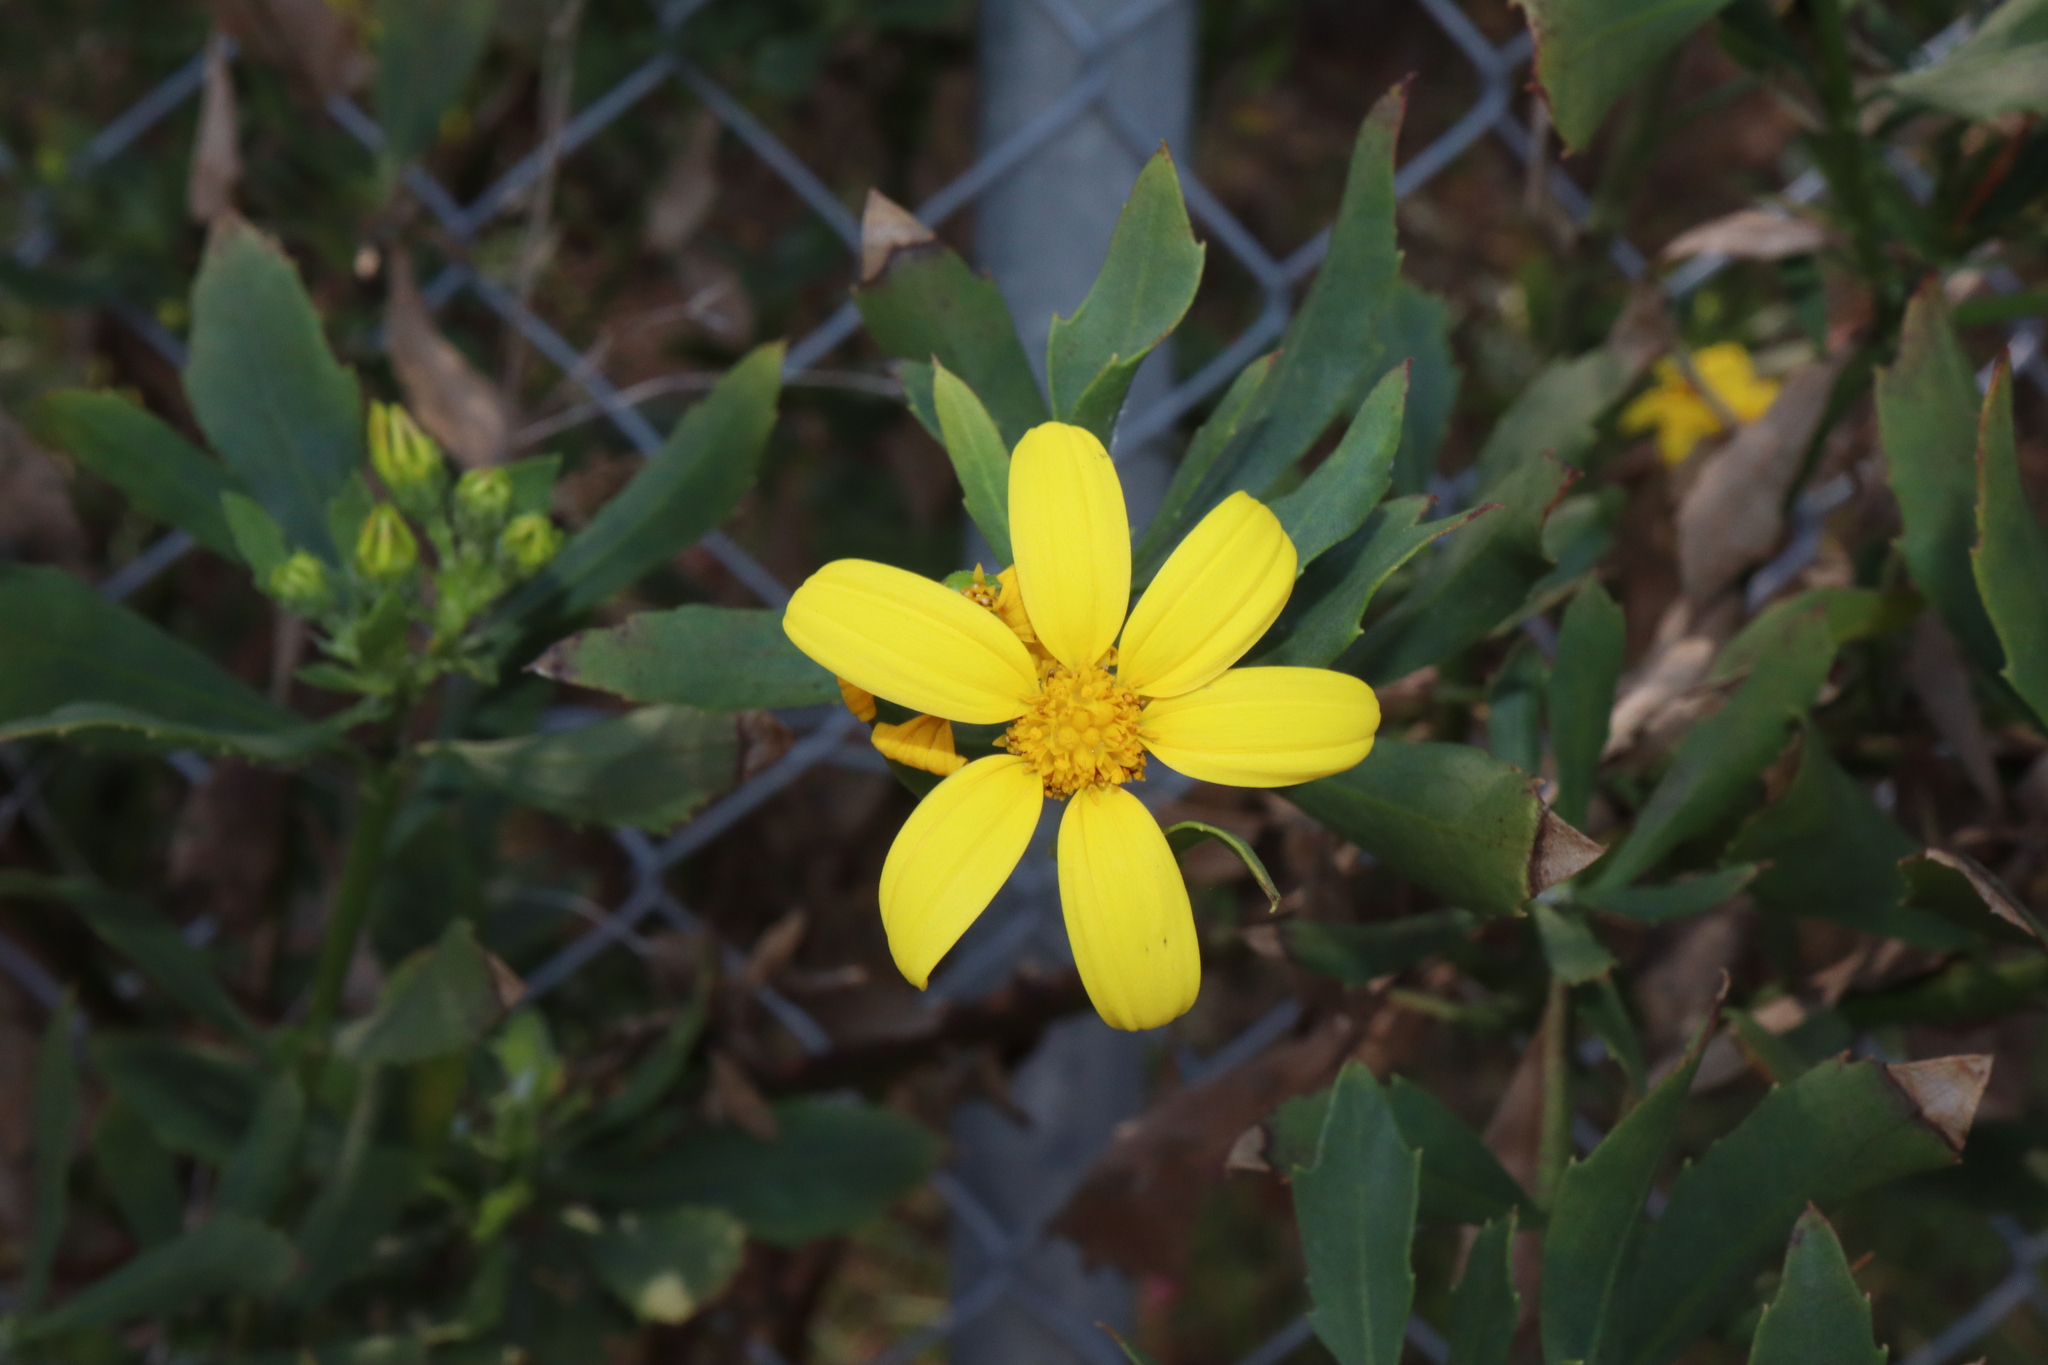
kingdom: Plantae
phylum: Tracheophyta
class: Magnoliopsida
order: Asterales
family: Asteraceae
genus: Osteospermum
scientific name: Osteospermum moniliferum
